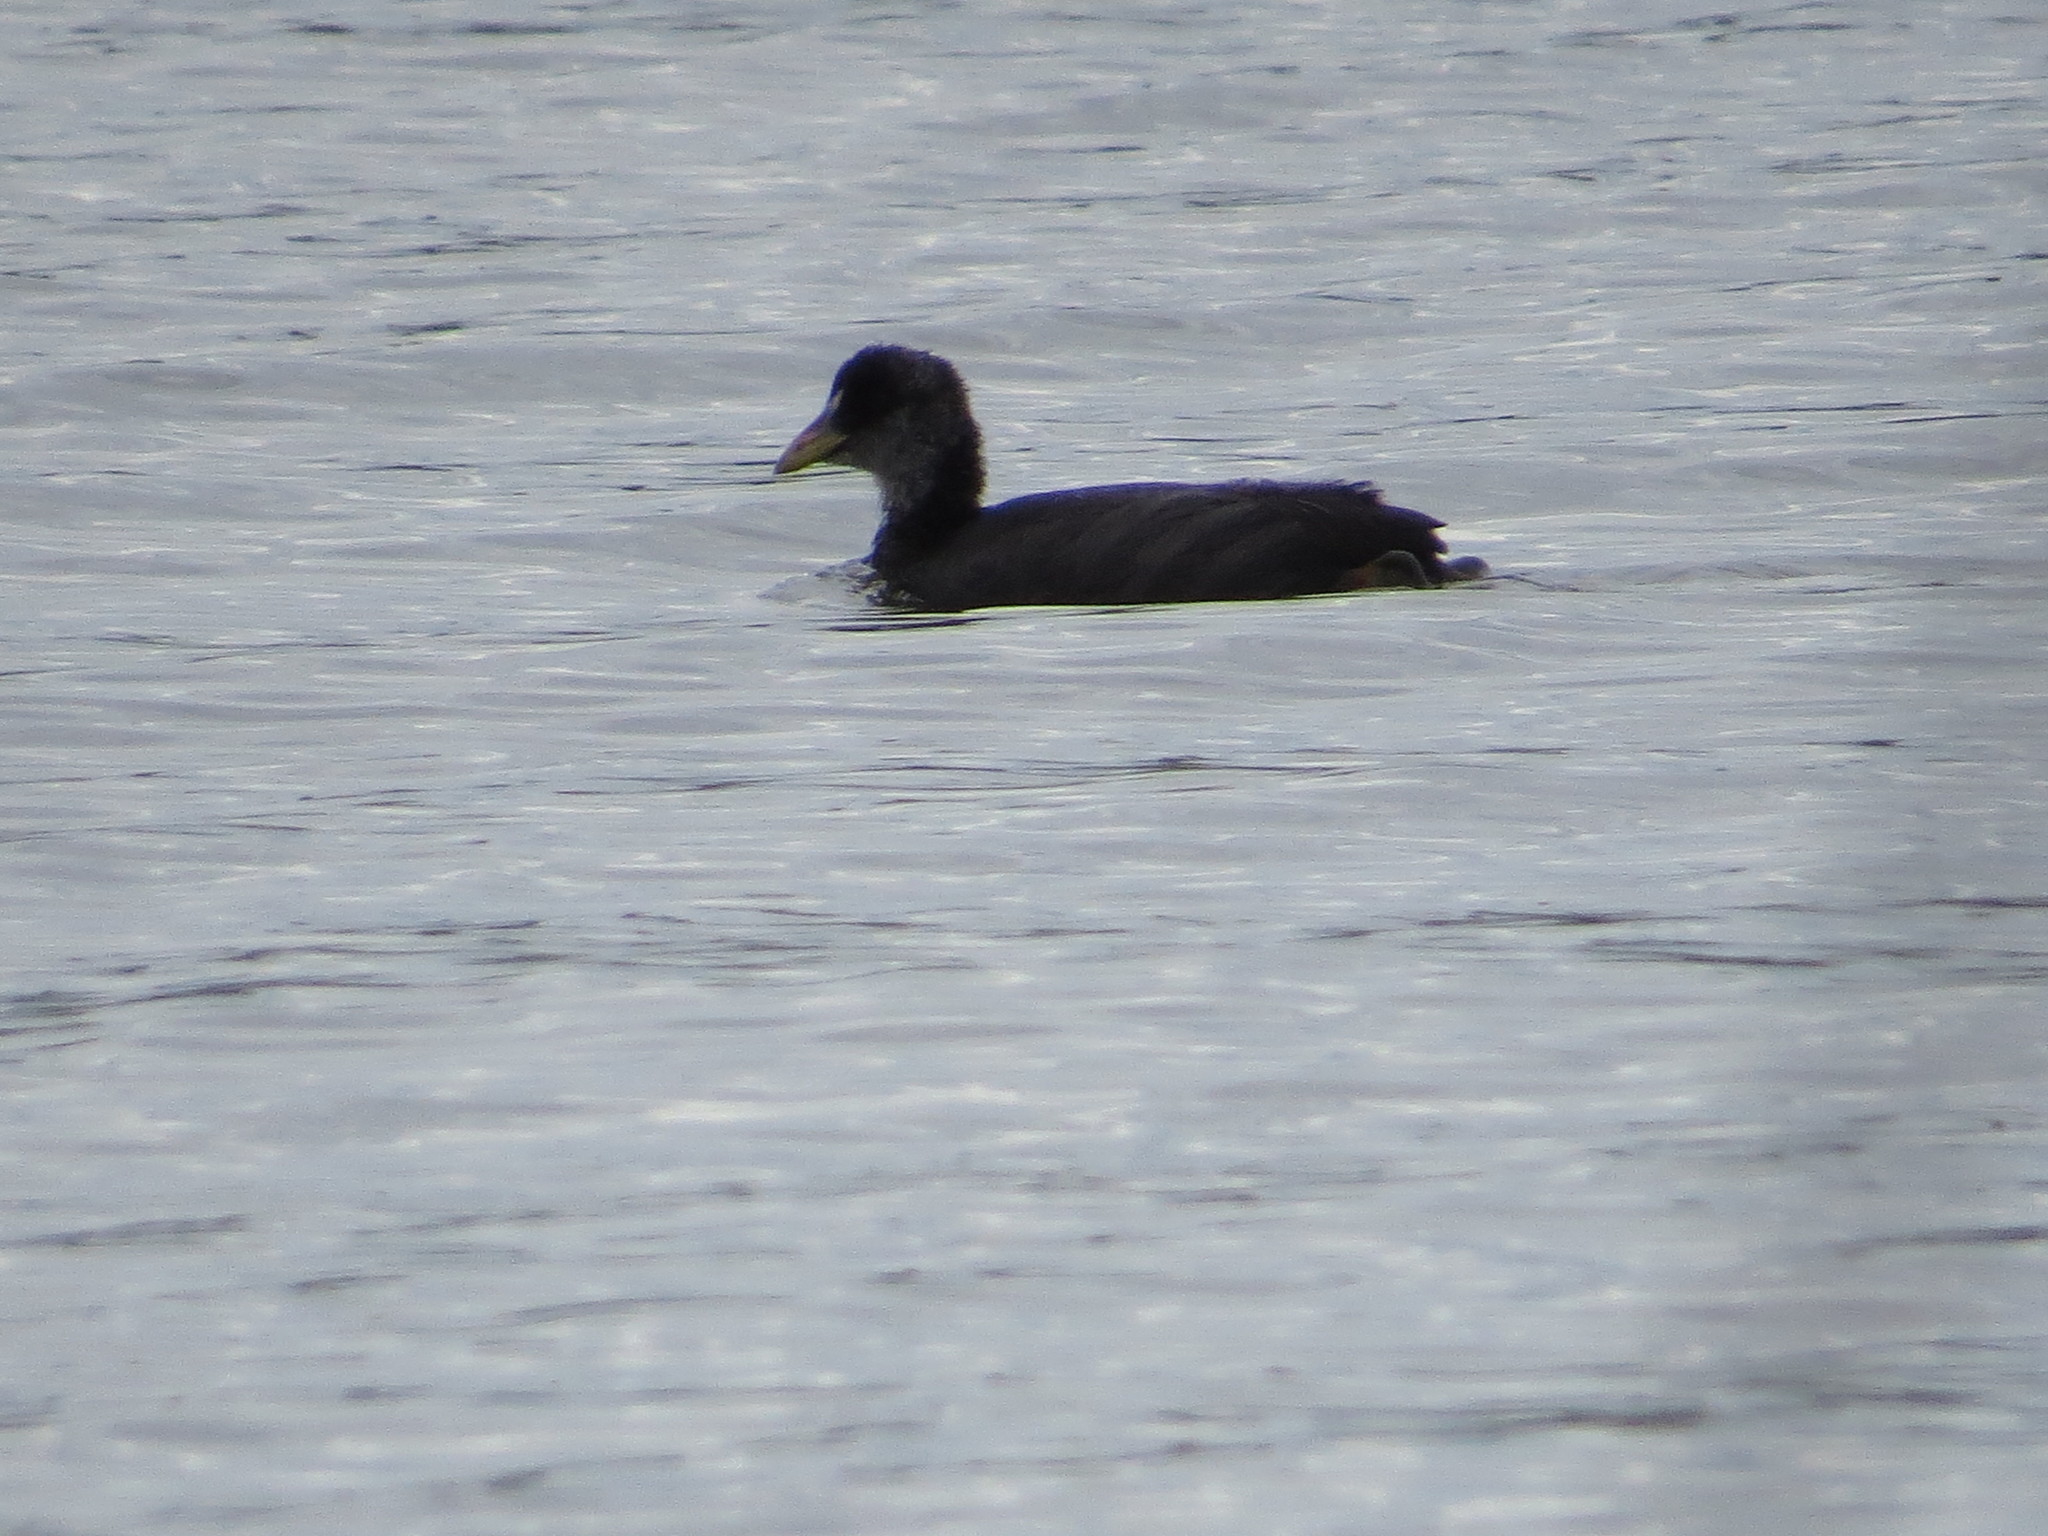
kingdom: Animalia
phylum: Chordata
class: Aves
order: Gruiformes
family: Rallidae
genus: Fulica
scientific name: Fulica armillata
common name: Red-gartered coot
